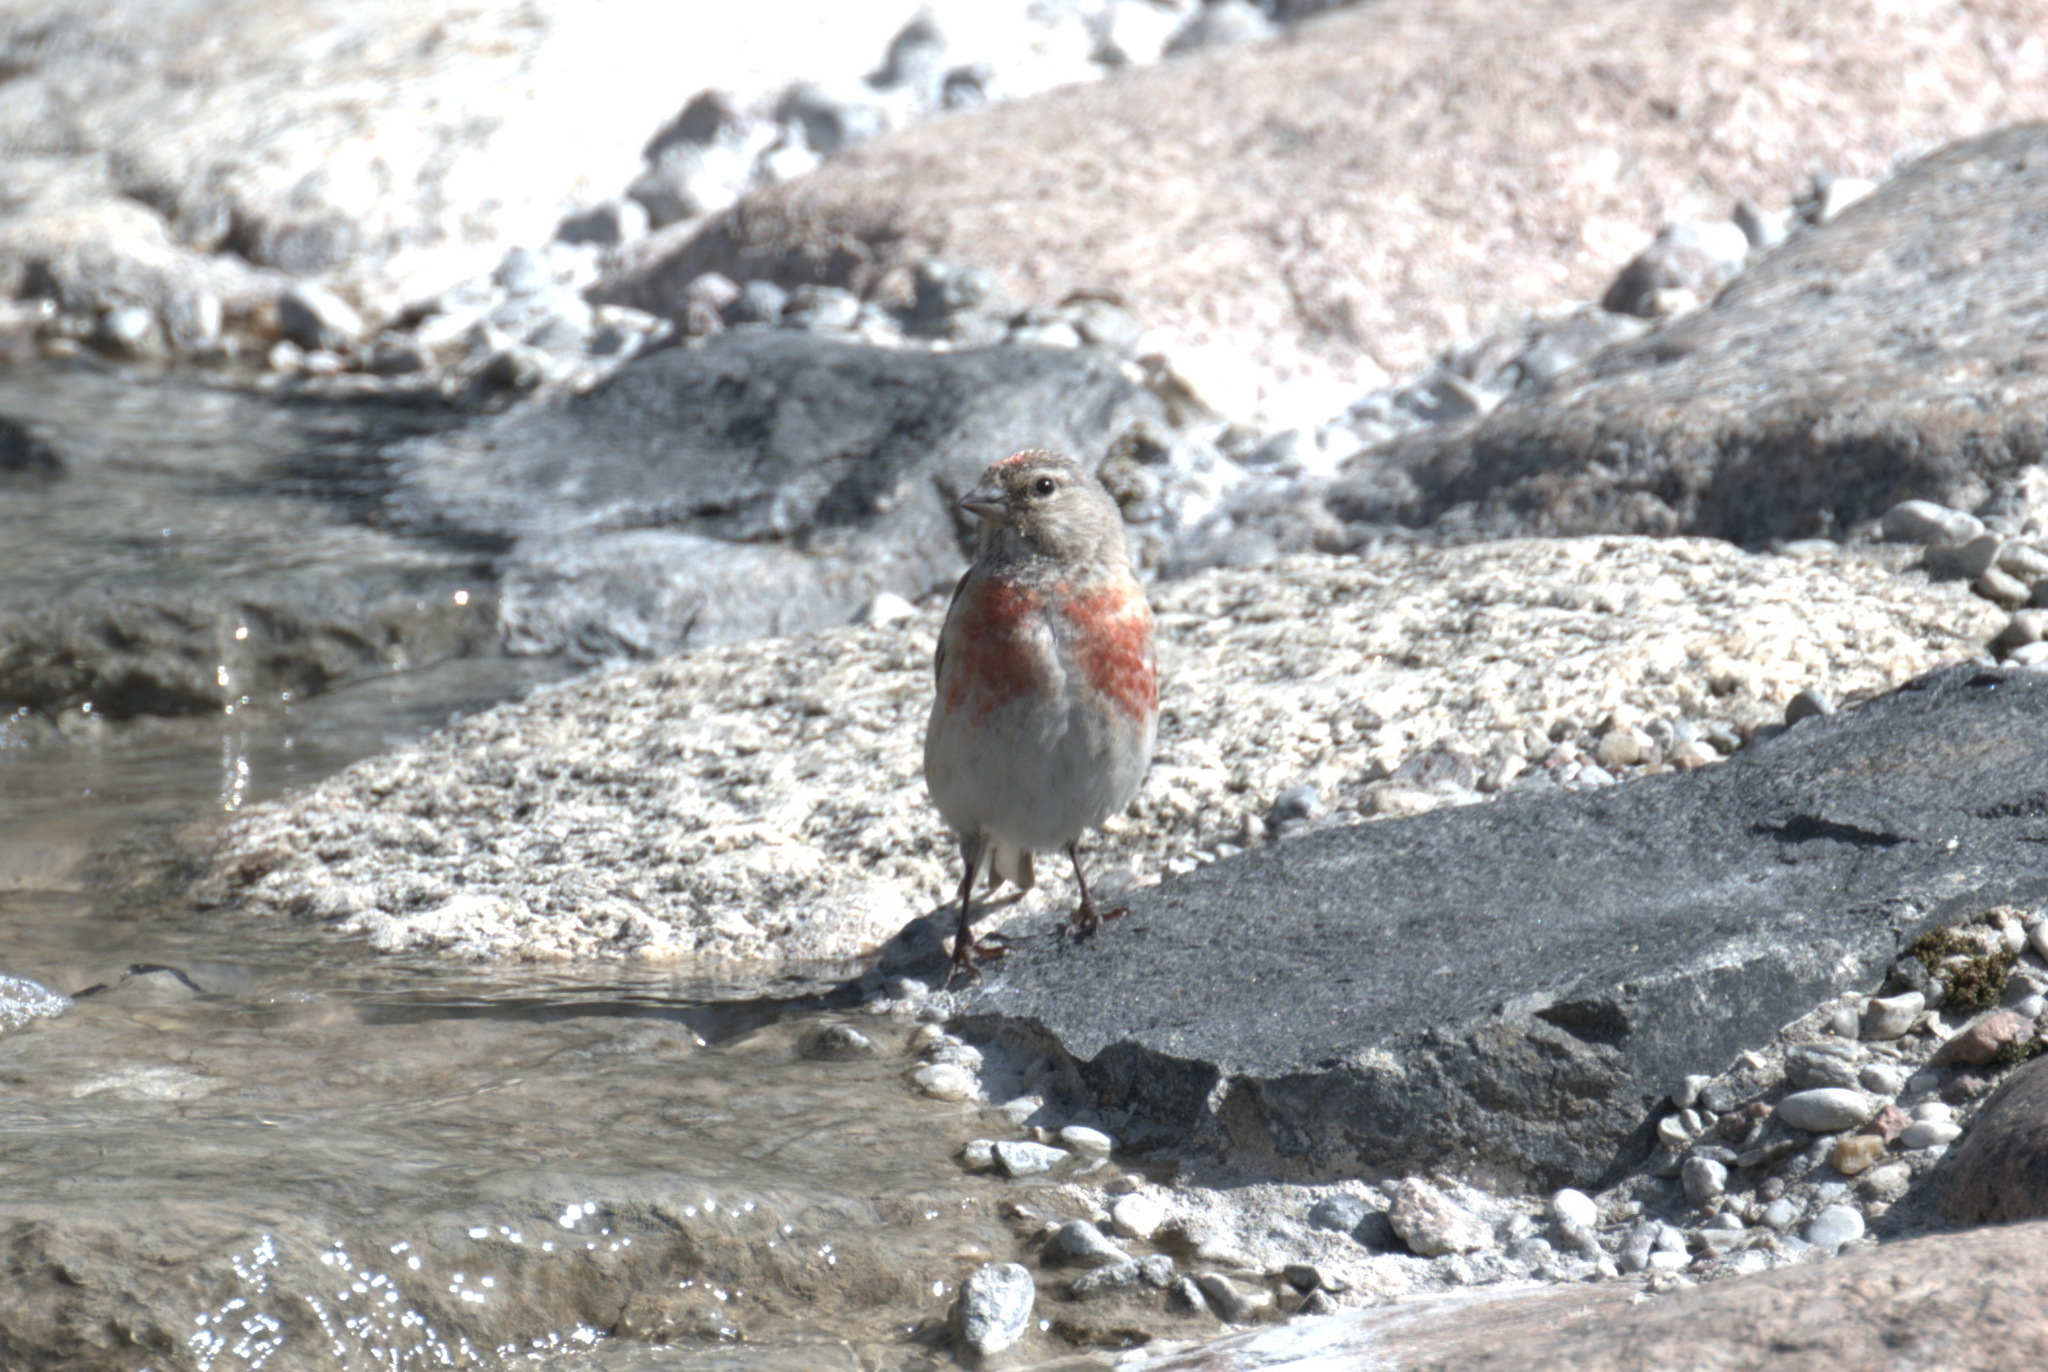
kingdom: Animalia
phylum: Chordata
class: Aves
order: Passeriformes
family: Fringillidae
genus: Linaria
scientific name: Linaria cannabina
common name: Common linnet
